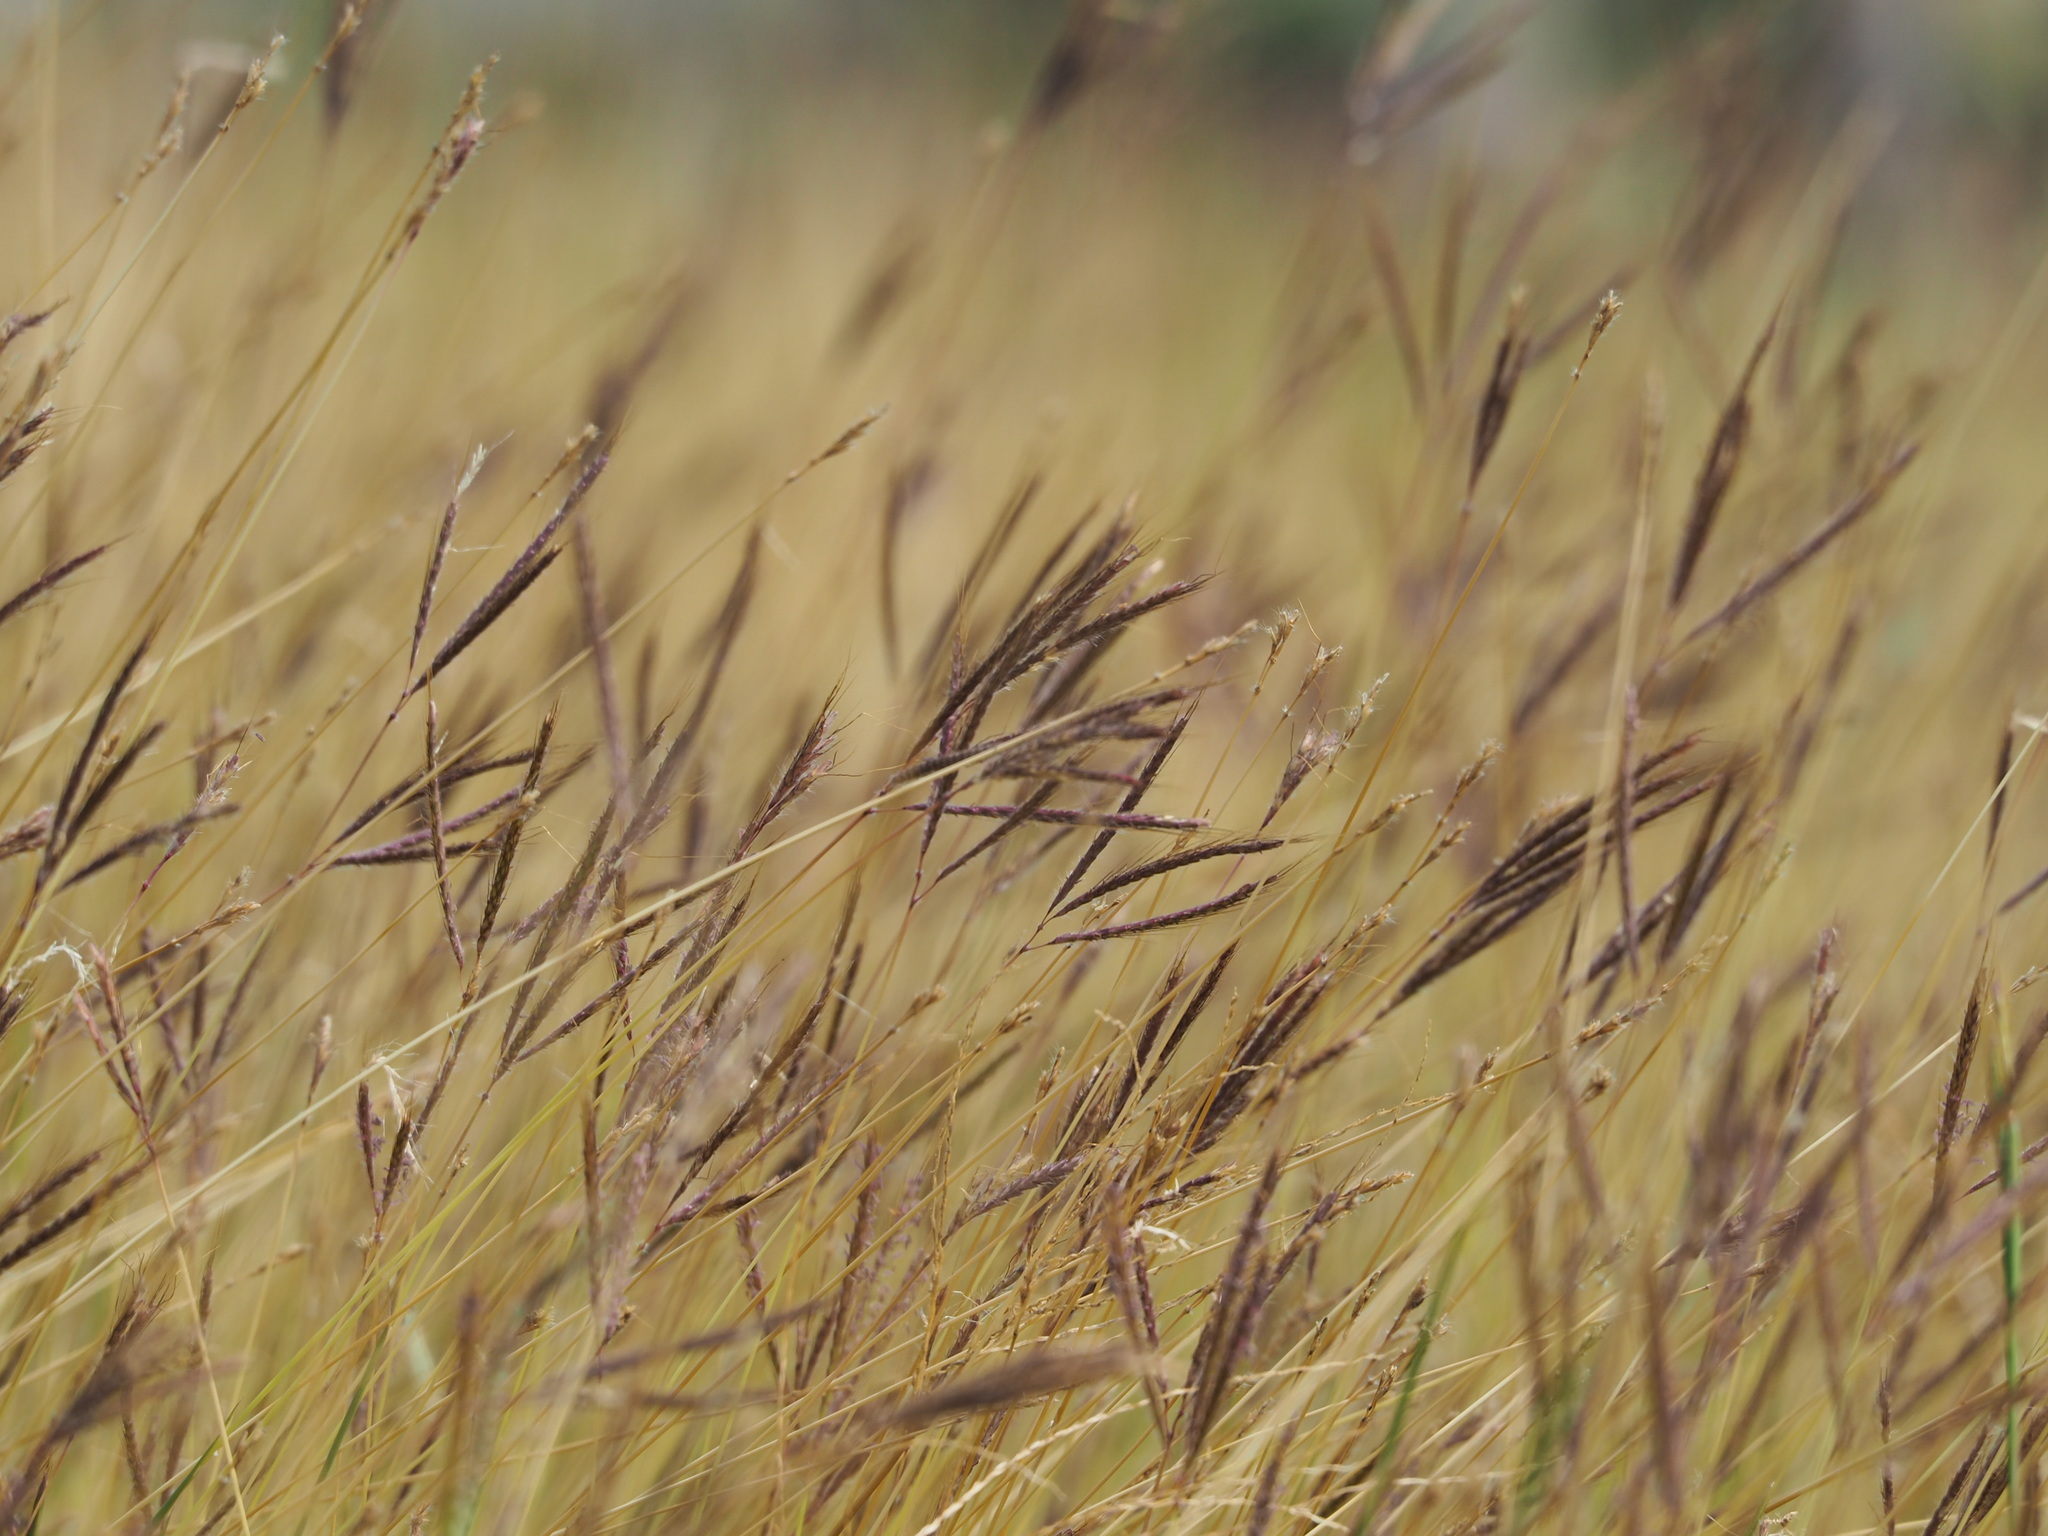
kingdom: Plantae
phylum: Tracheophyta
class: Liliopsida
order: Poales
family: Poaceae
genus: Dichanthium
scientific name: Dichanthium annulatum
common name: Kleberg's bluestem
